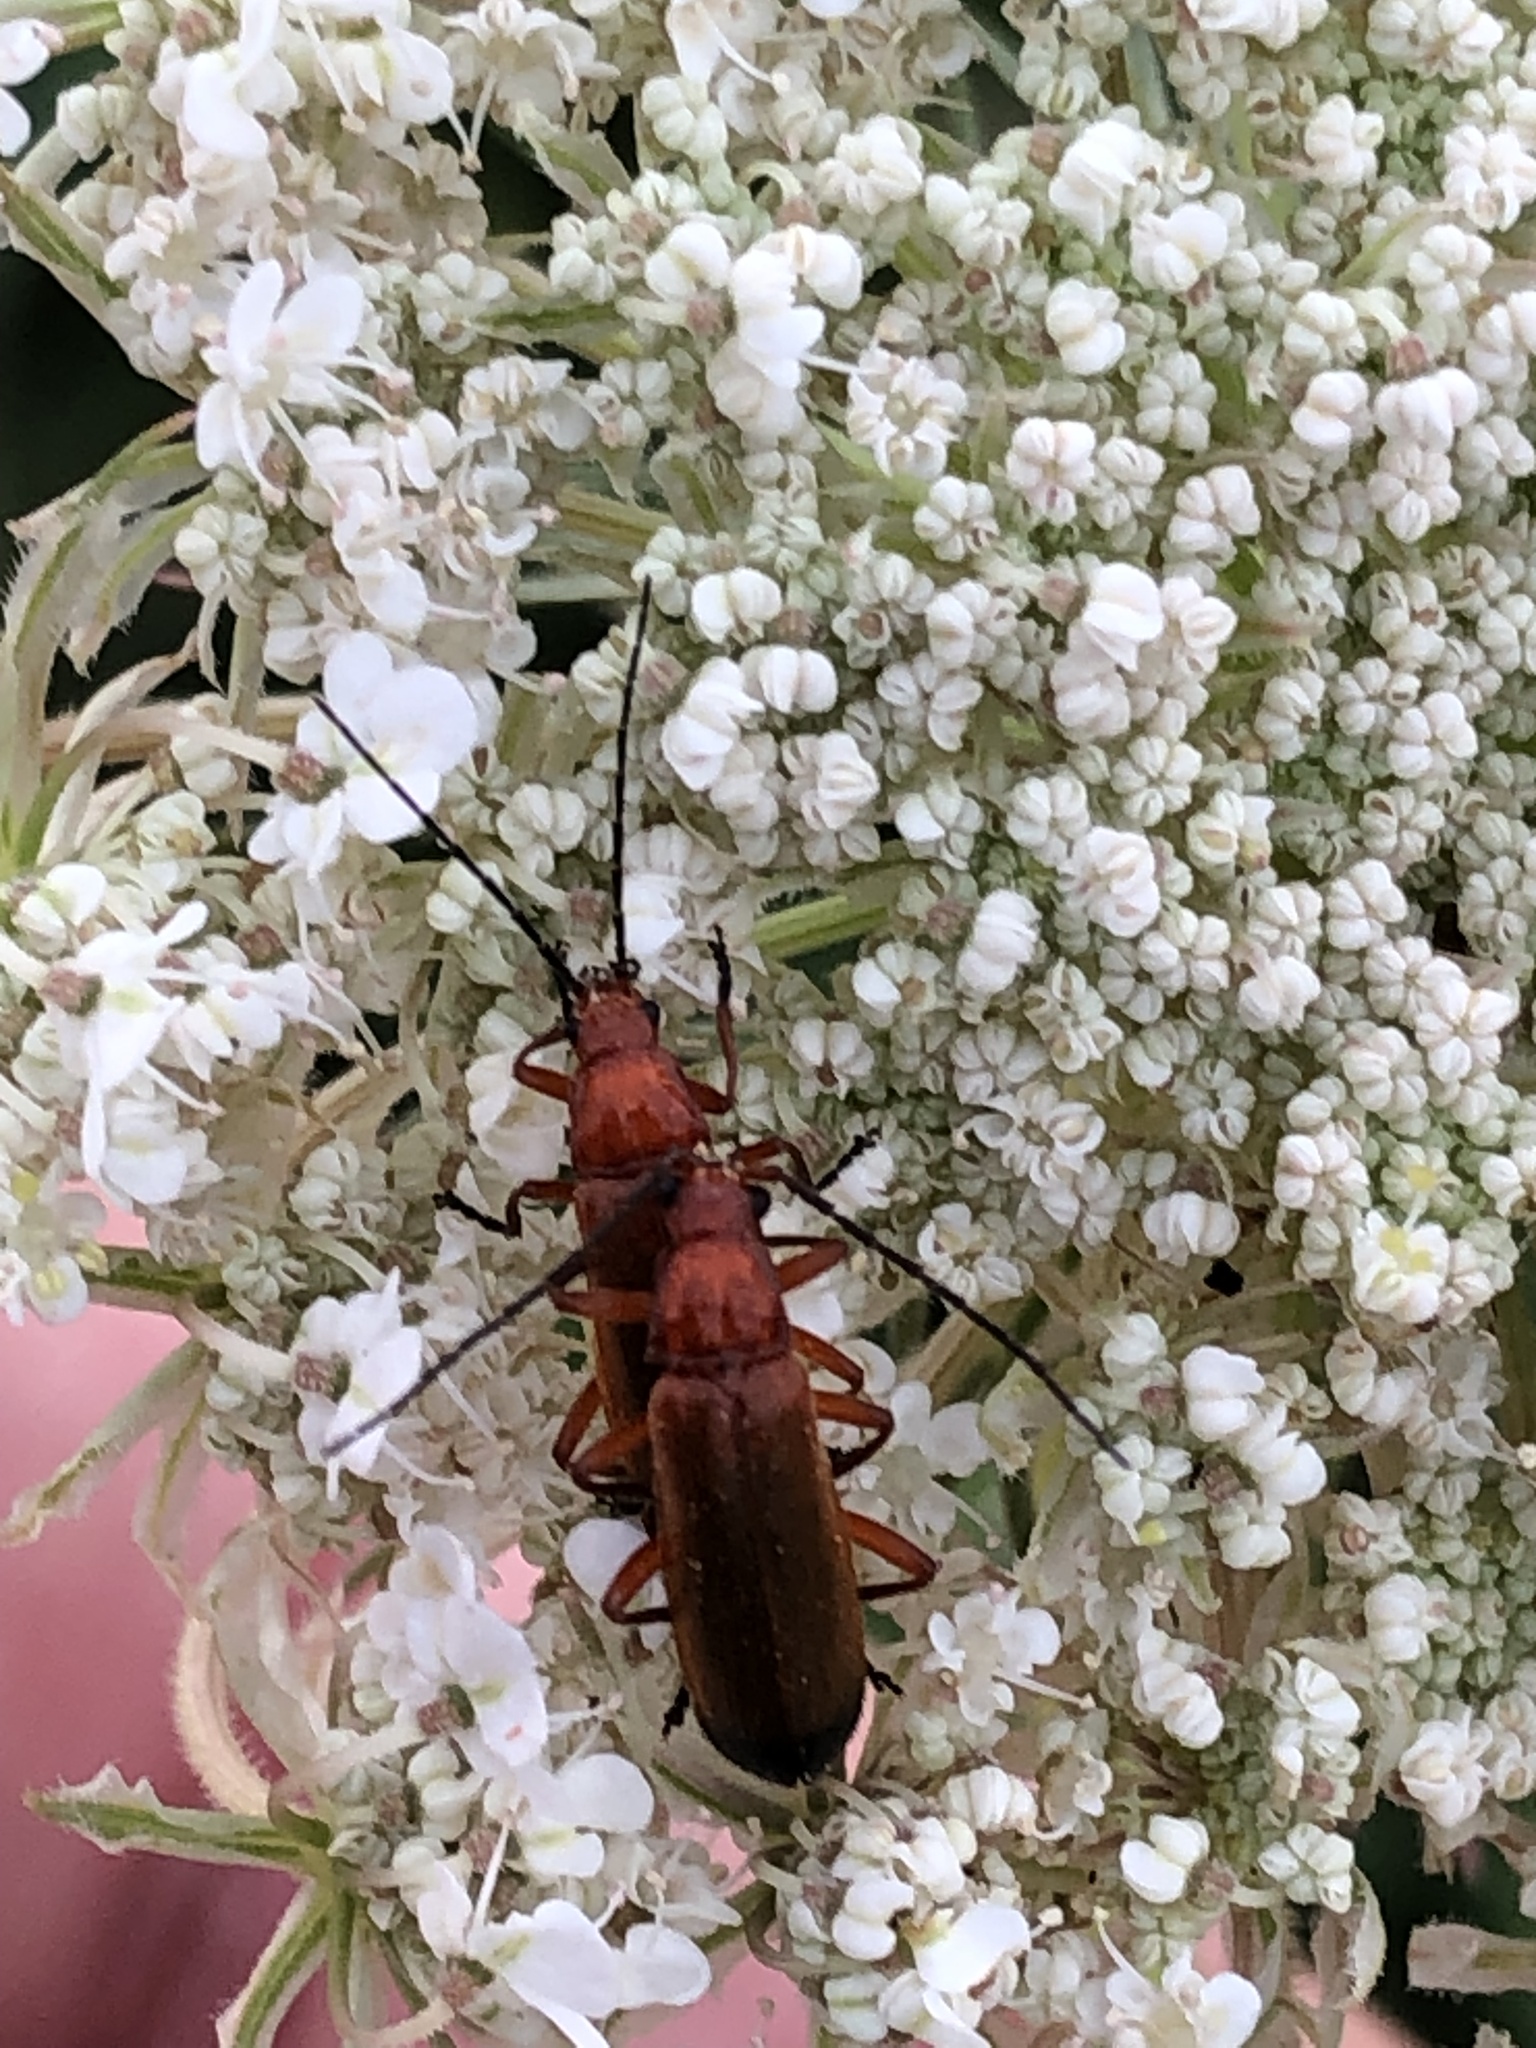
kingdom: Animalia
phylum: Arthropoda
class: Insecta
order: Coleoptera
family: Cantharidae
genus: Rhagonycha
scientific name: Rhagonycha fulva
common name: Common red soldier beetle
